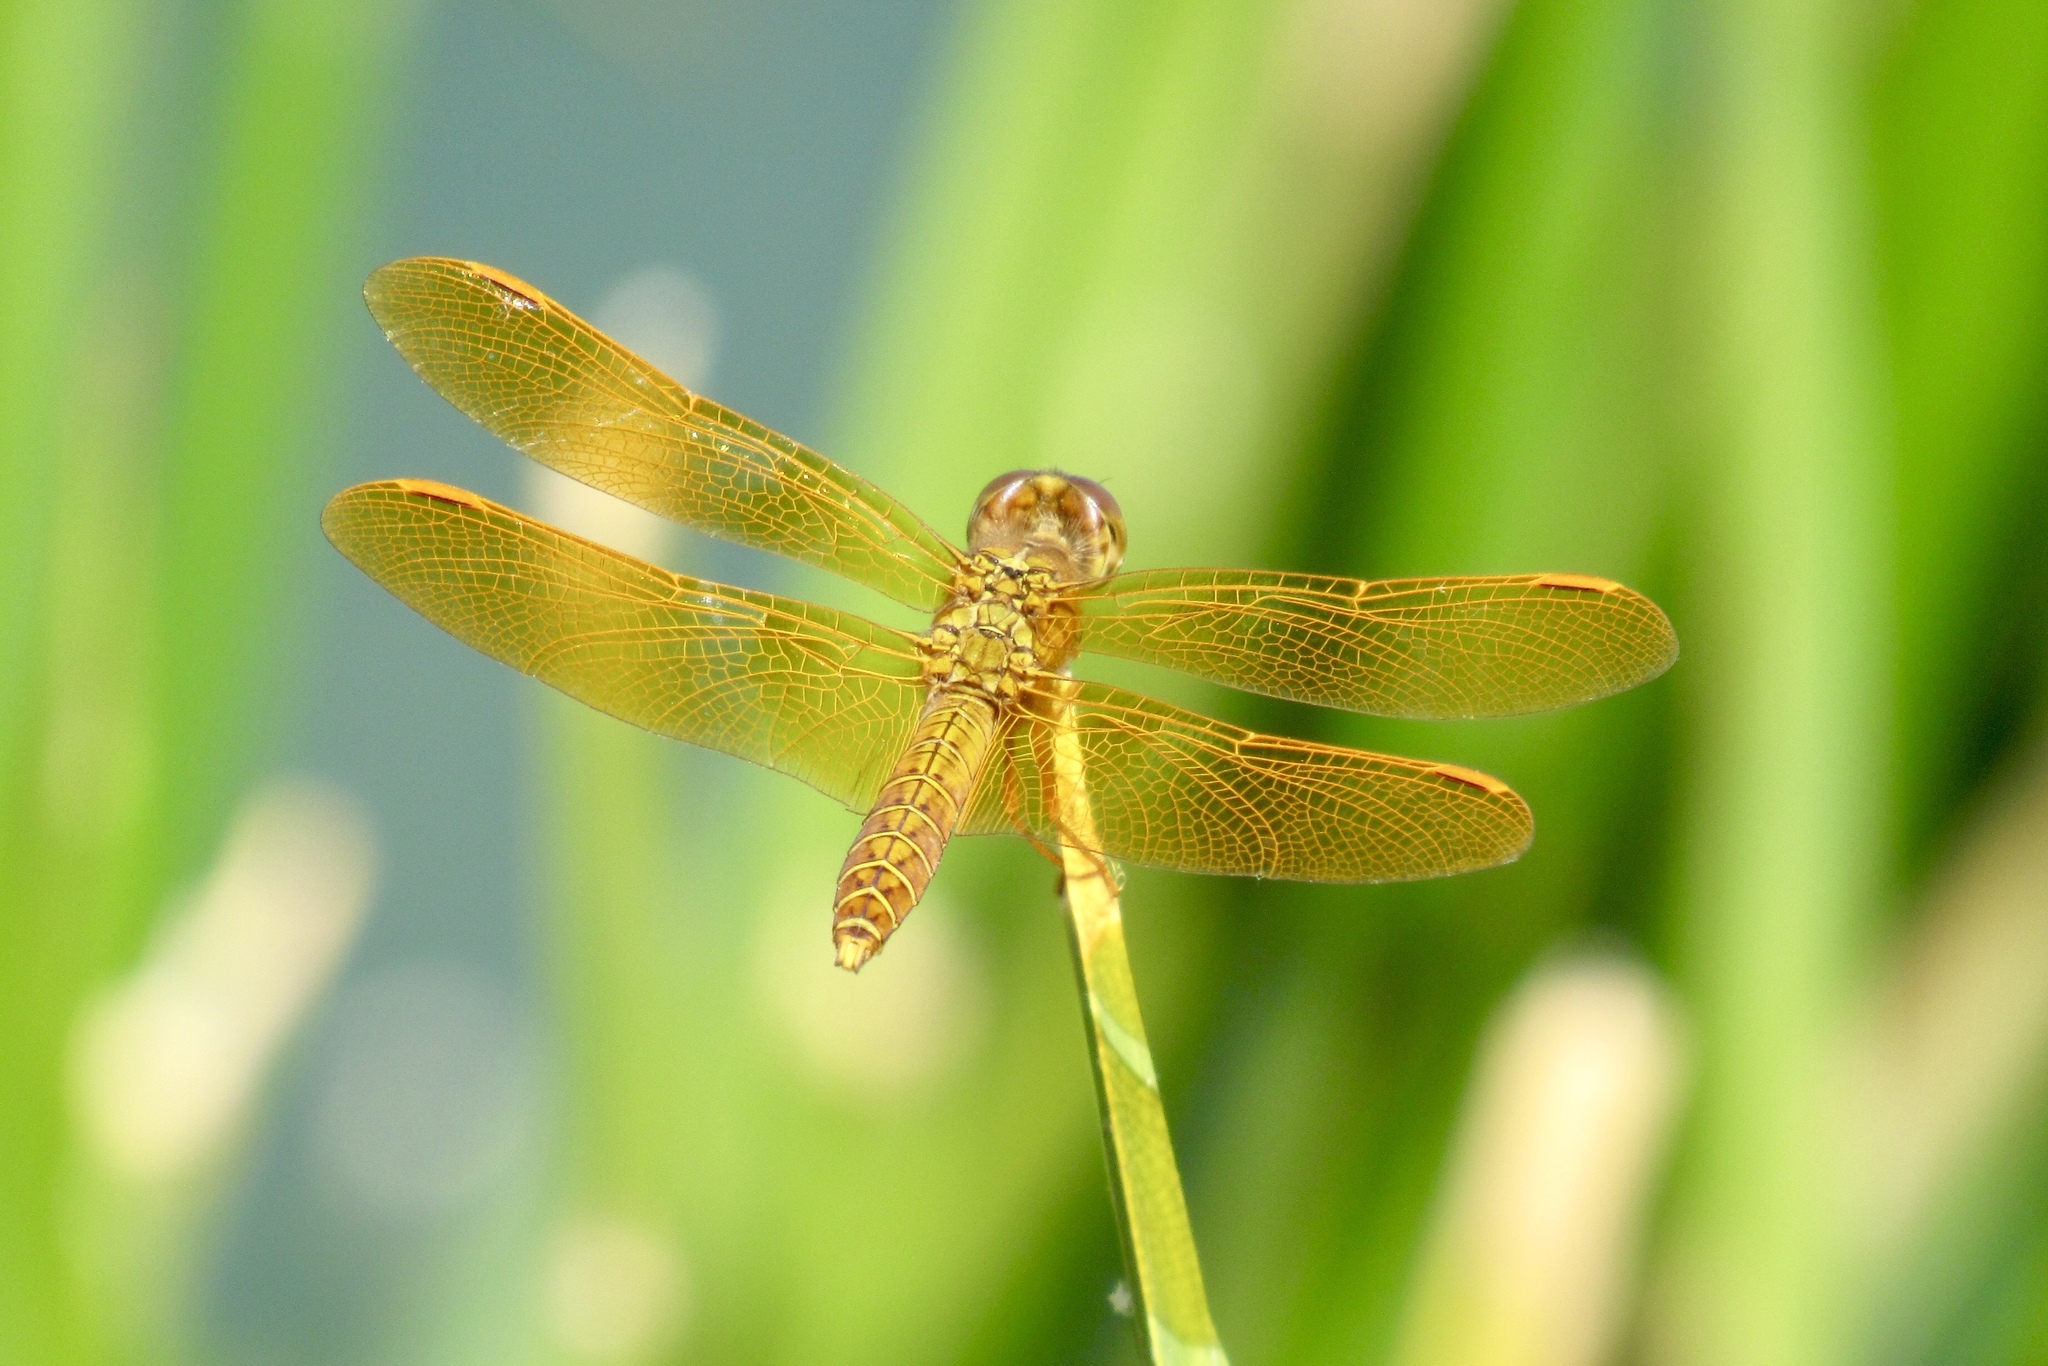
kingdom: Animalia
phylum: Arthropoda
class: Insecta
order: Odonata
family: Libellulidae
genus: Perithemis
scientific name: Perithemis intensa
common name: Mexican amberwing
